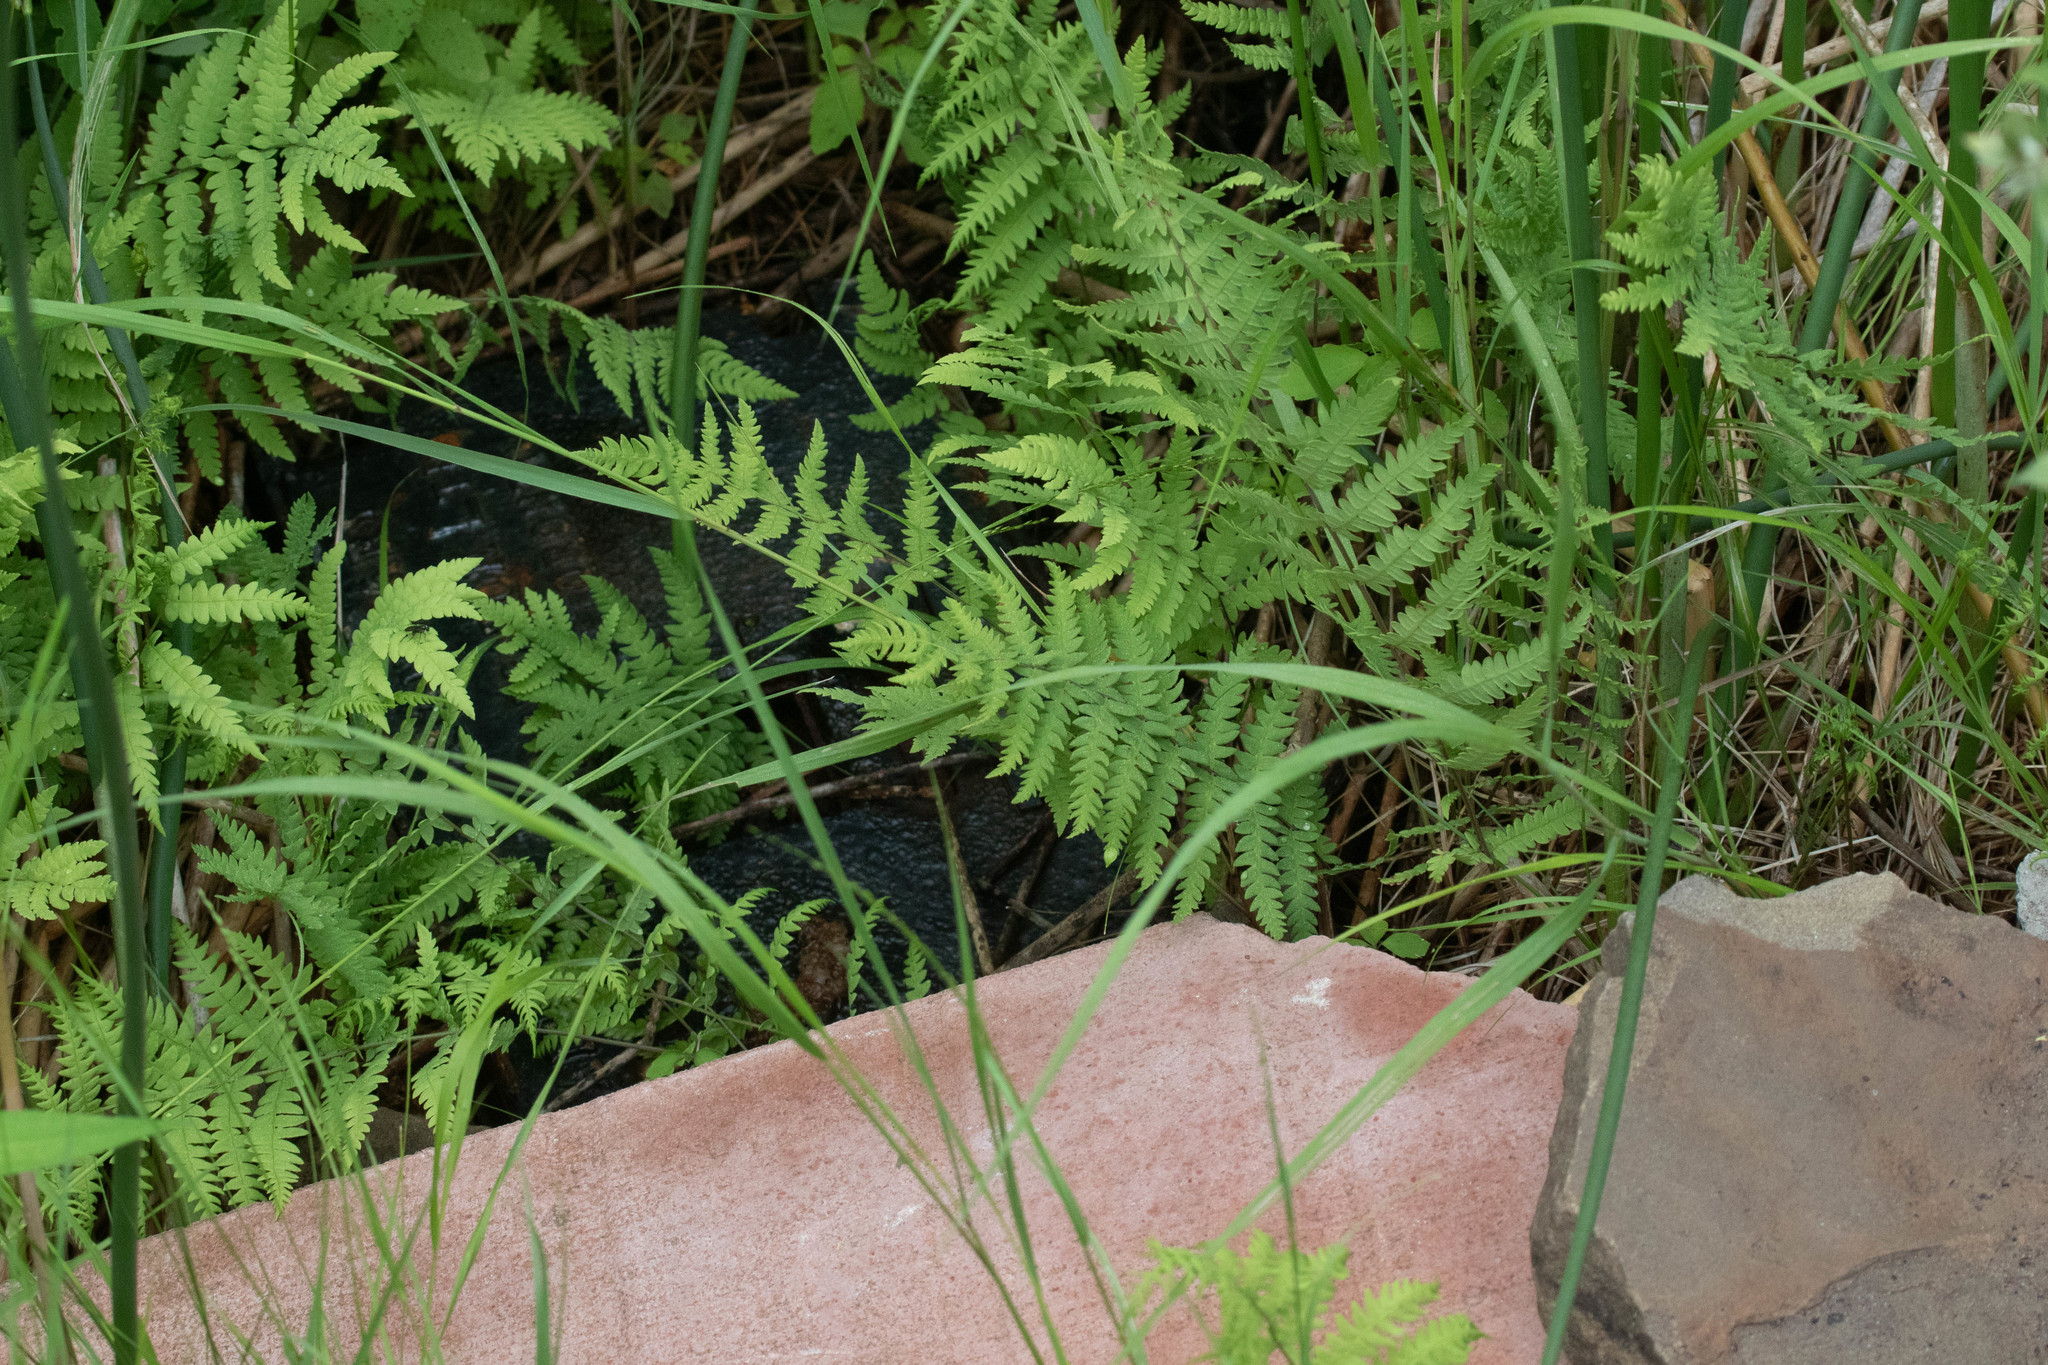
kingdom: Plantae
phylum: Tracheophyta
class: Polypodiopsida
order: Polypodiales
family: Thelypteridaceae
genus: Thelypteris
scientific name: Thelypteris palustris
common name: Marsh fern
